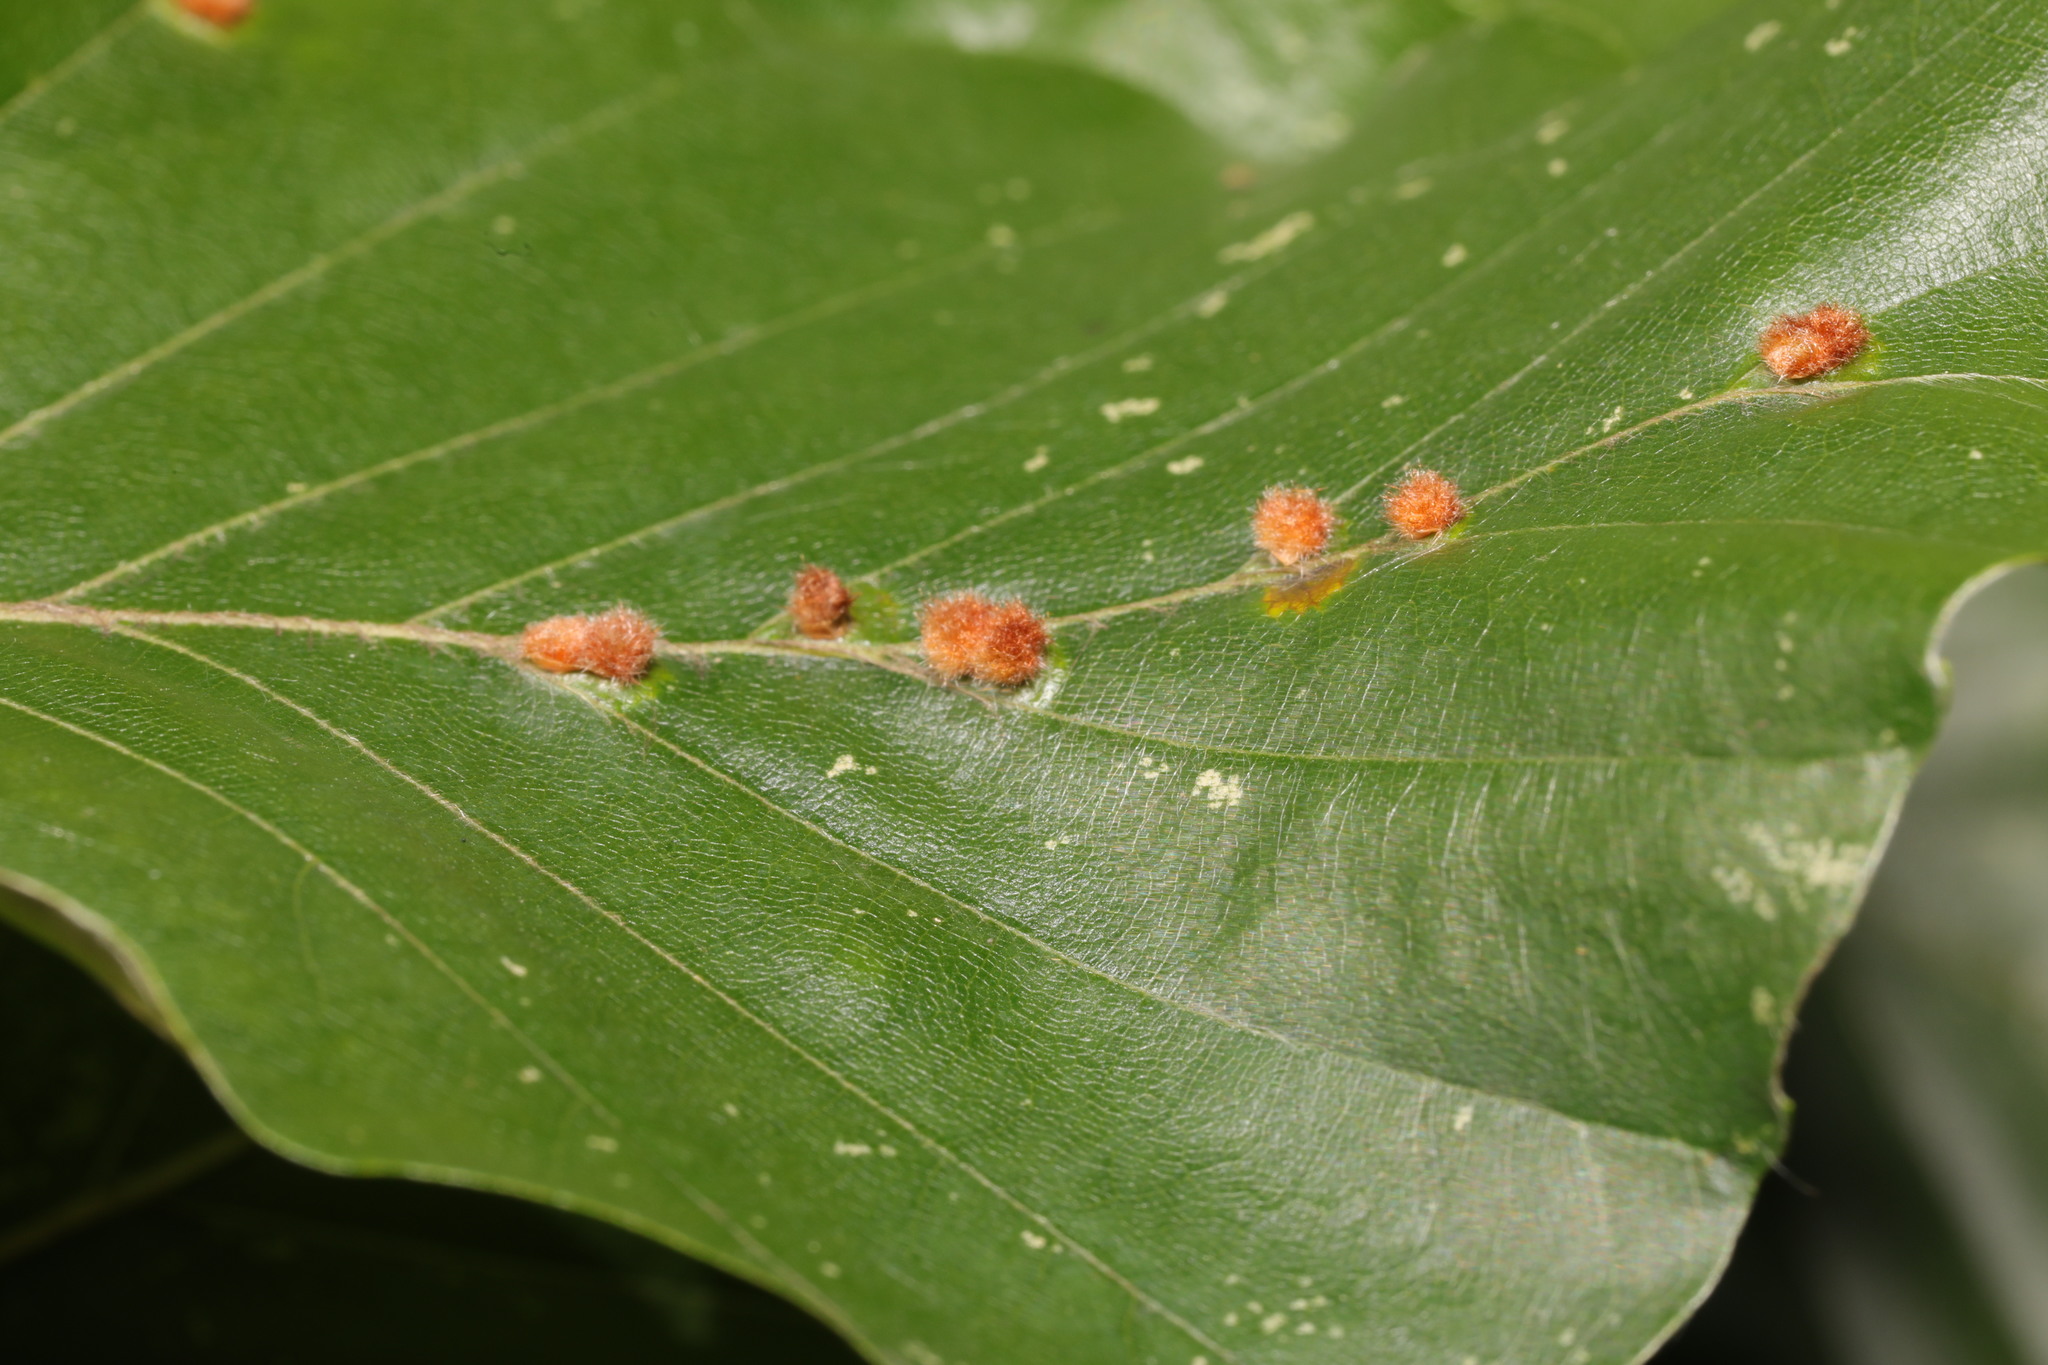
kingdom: Animalia
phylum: Arthropoda
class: Insecta
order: Diptera
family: Cecidomyiidae
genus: Hartigiola
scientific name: Hartigiola annulipes
